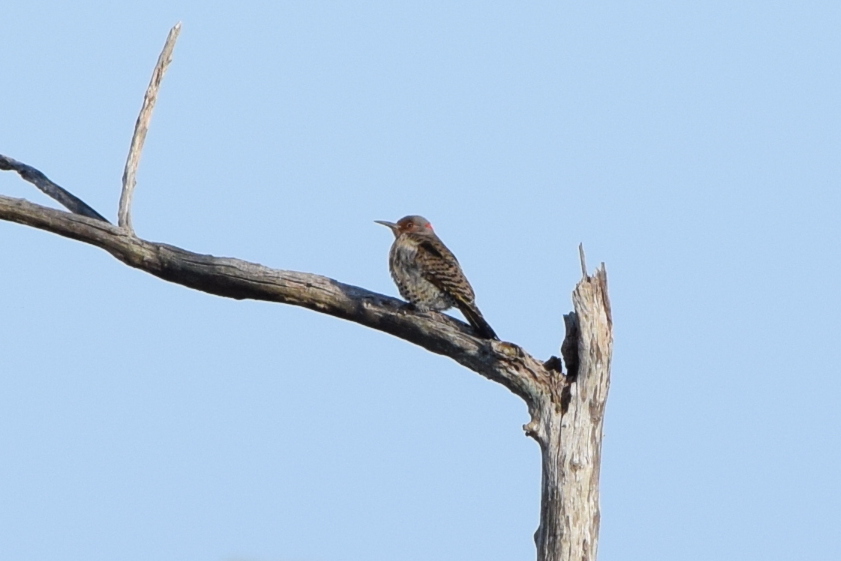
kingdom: Animalia
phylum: Chordata
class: Aves
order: Piciformes
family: Picidae
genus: Colaptes
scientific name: Colaptes auratus
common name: Northern flicker
